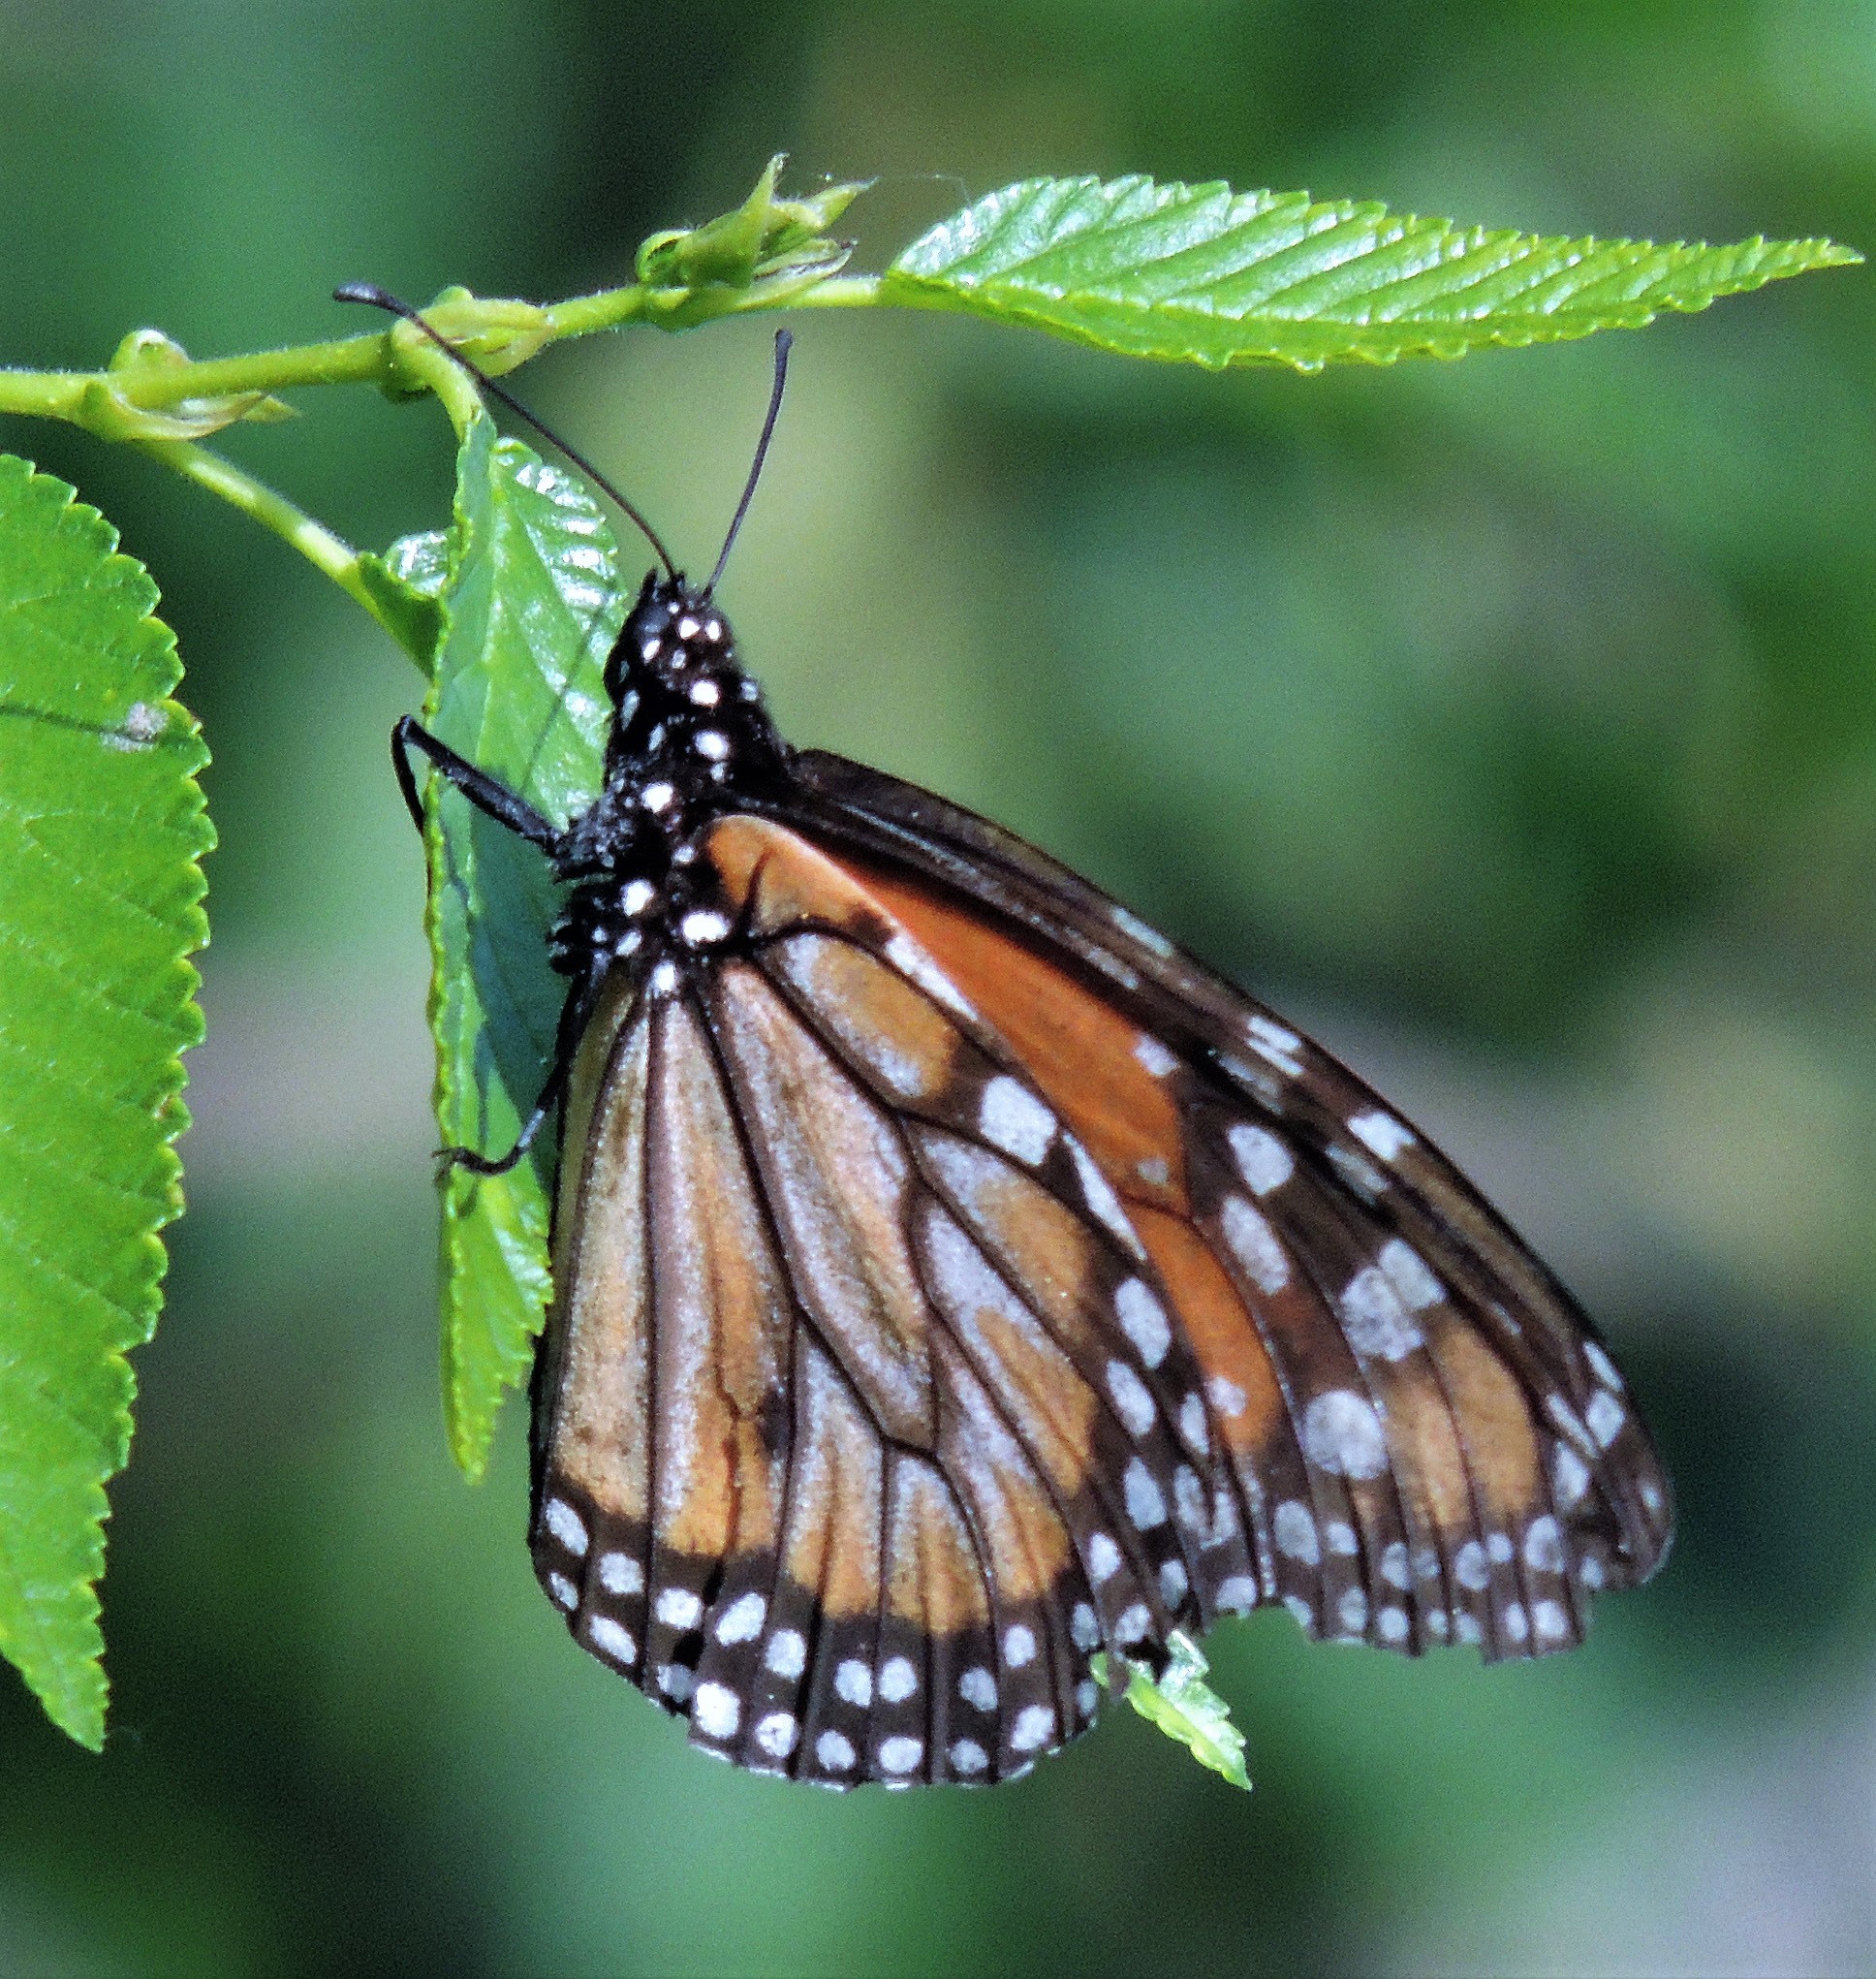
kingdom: Animalia
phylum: Arthropoda
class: Insecta
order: Lepidoptera
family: Nymphalidae
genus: Danaus
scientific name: Danaus erippus
